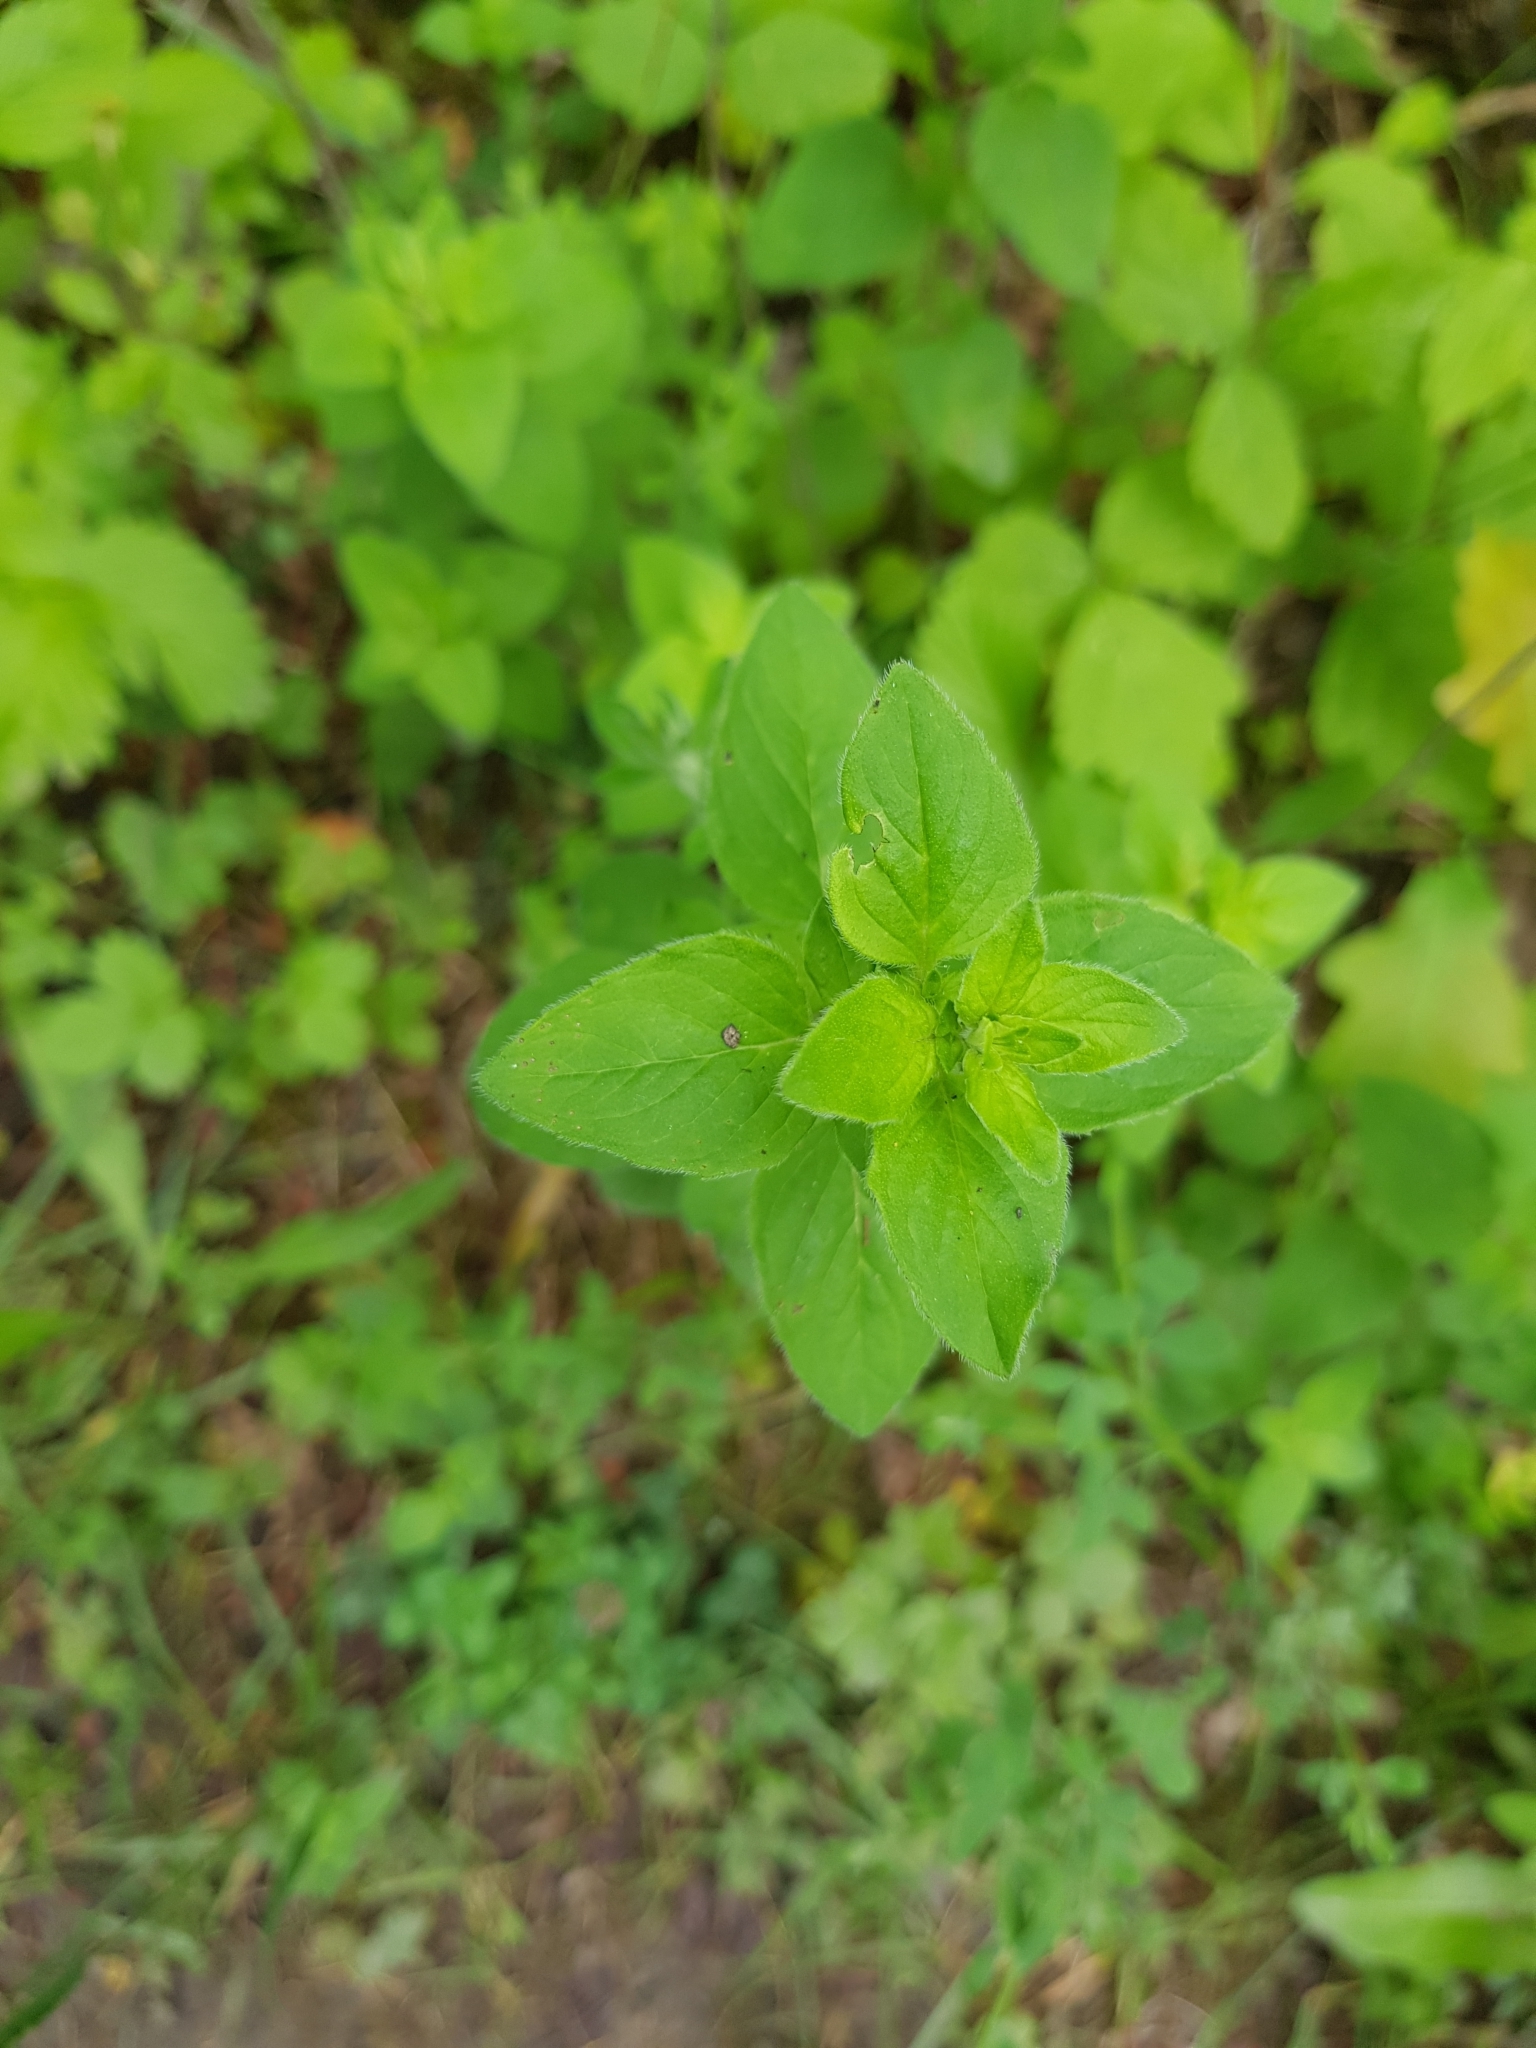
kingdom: Plantae
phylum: Tracheophyta
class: Magnoliopsida
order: Lamiales
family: Lamiaceae
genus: Origanum
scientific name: Origanum vulgare
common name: Wild marjoram
